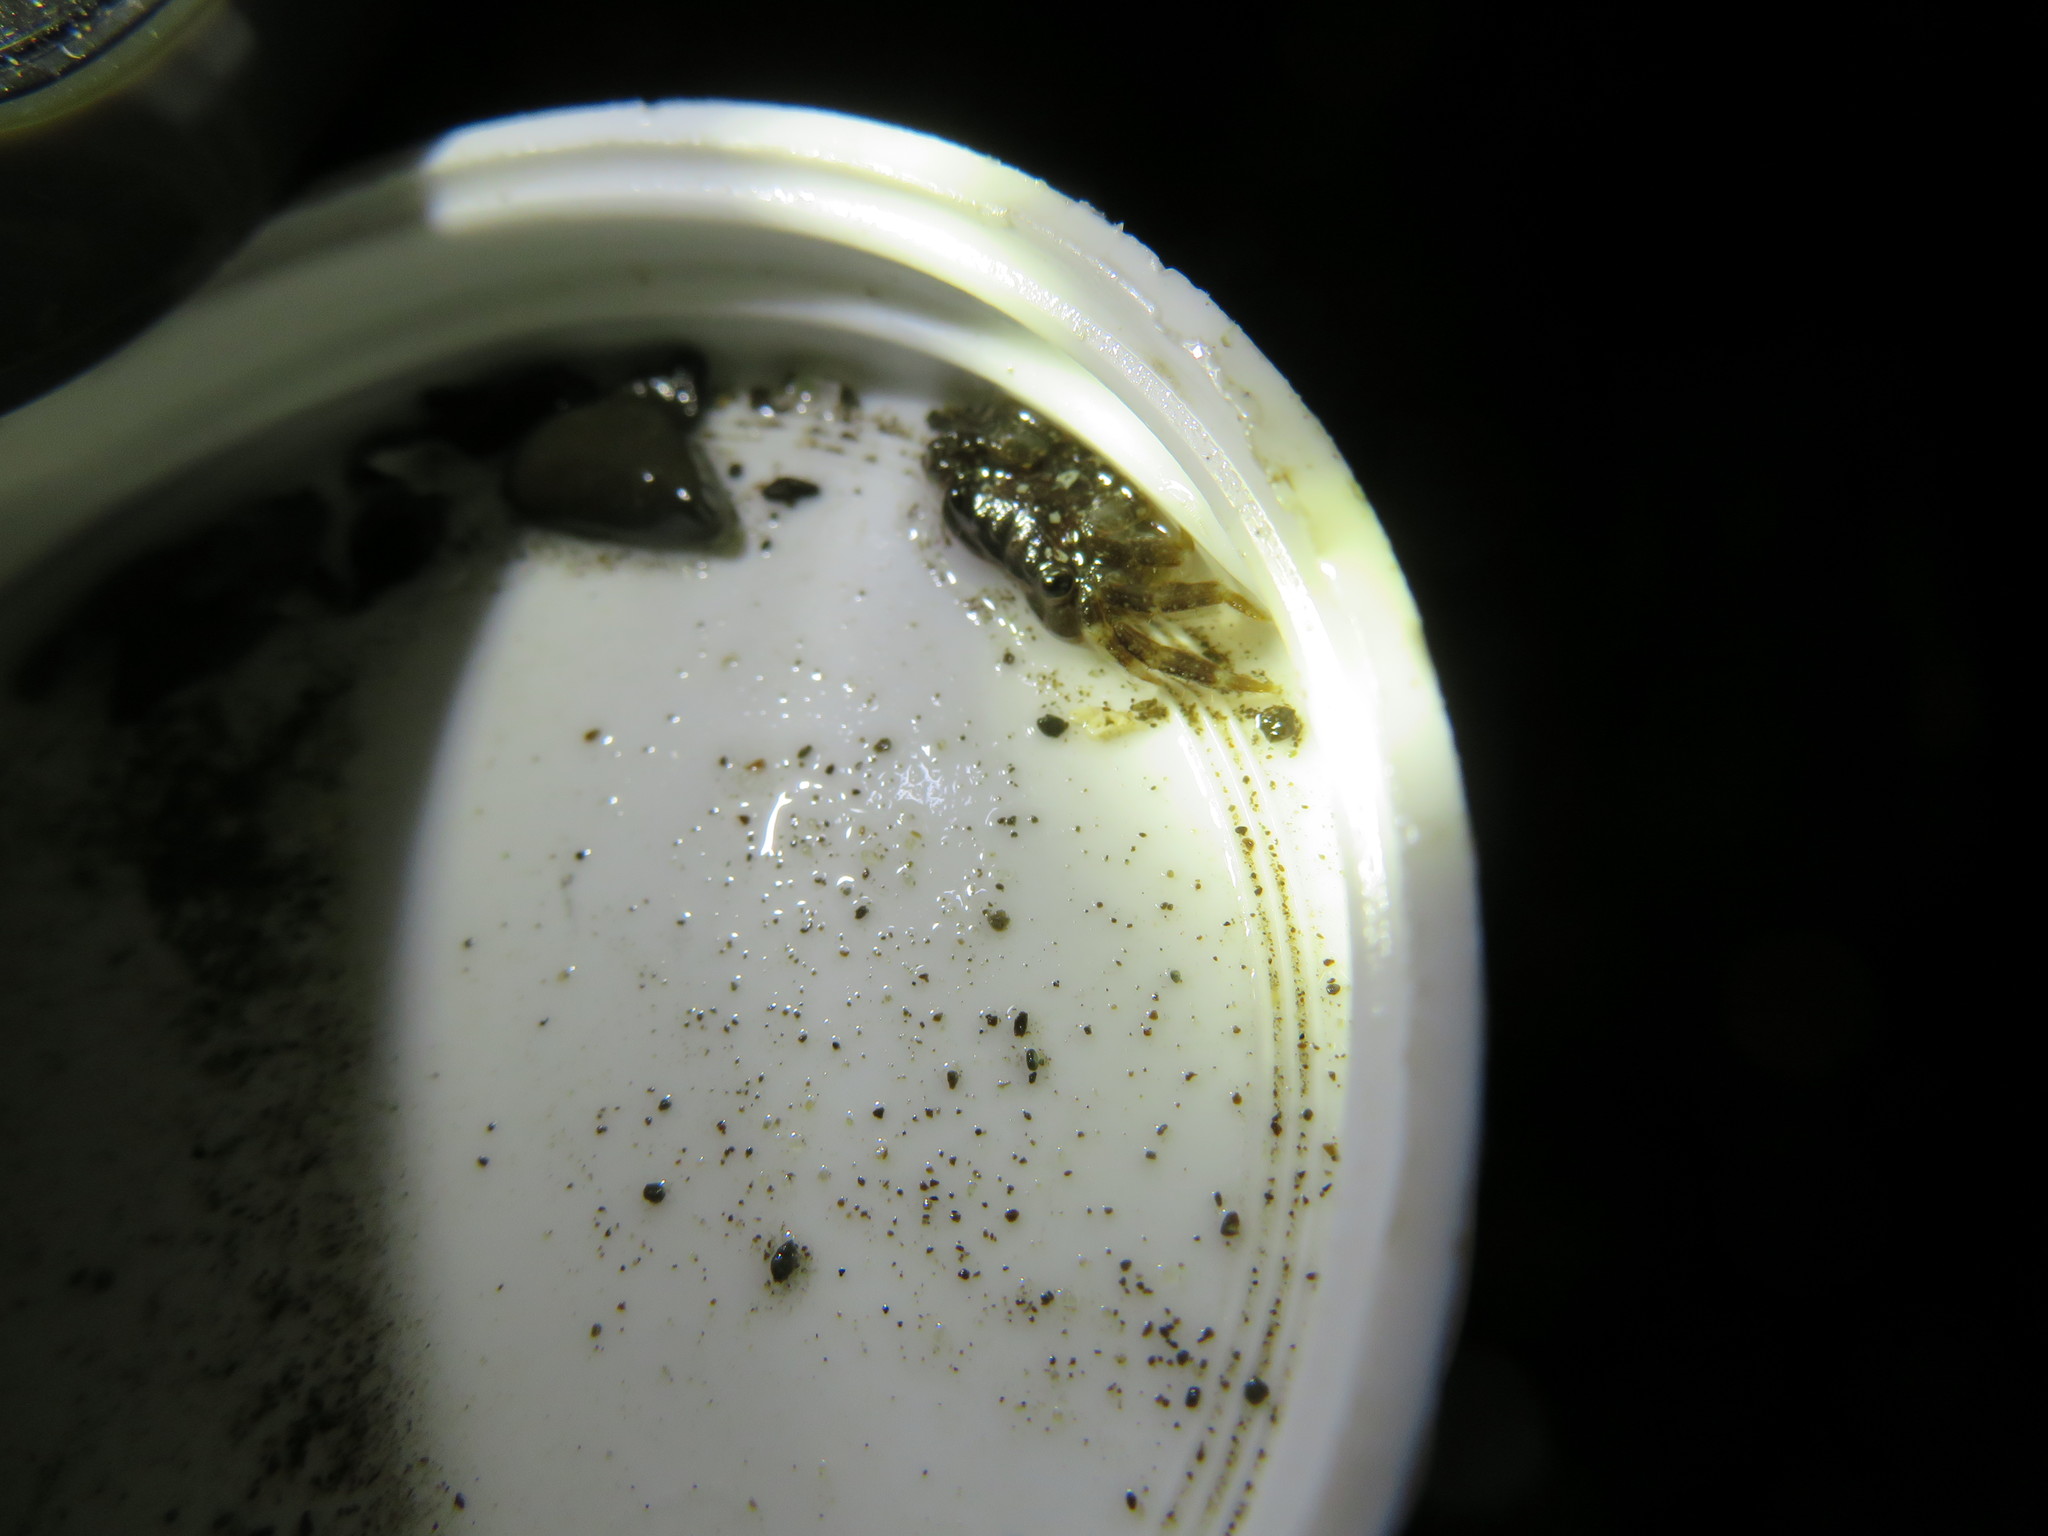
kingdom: Animalia
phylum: Arthropoda
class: Malacostraca
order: Decapoda
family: Grapsidae
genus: Pachygrapsus
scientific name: Pachygrapsus crassipes
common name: Striped shore crab
